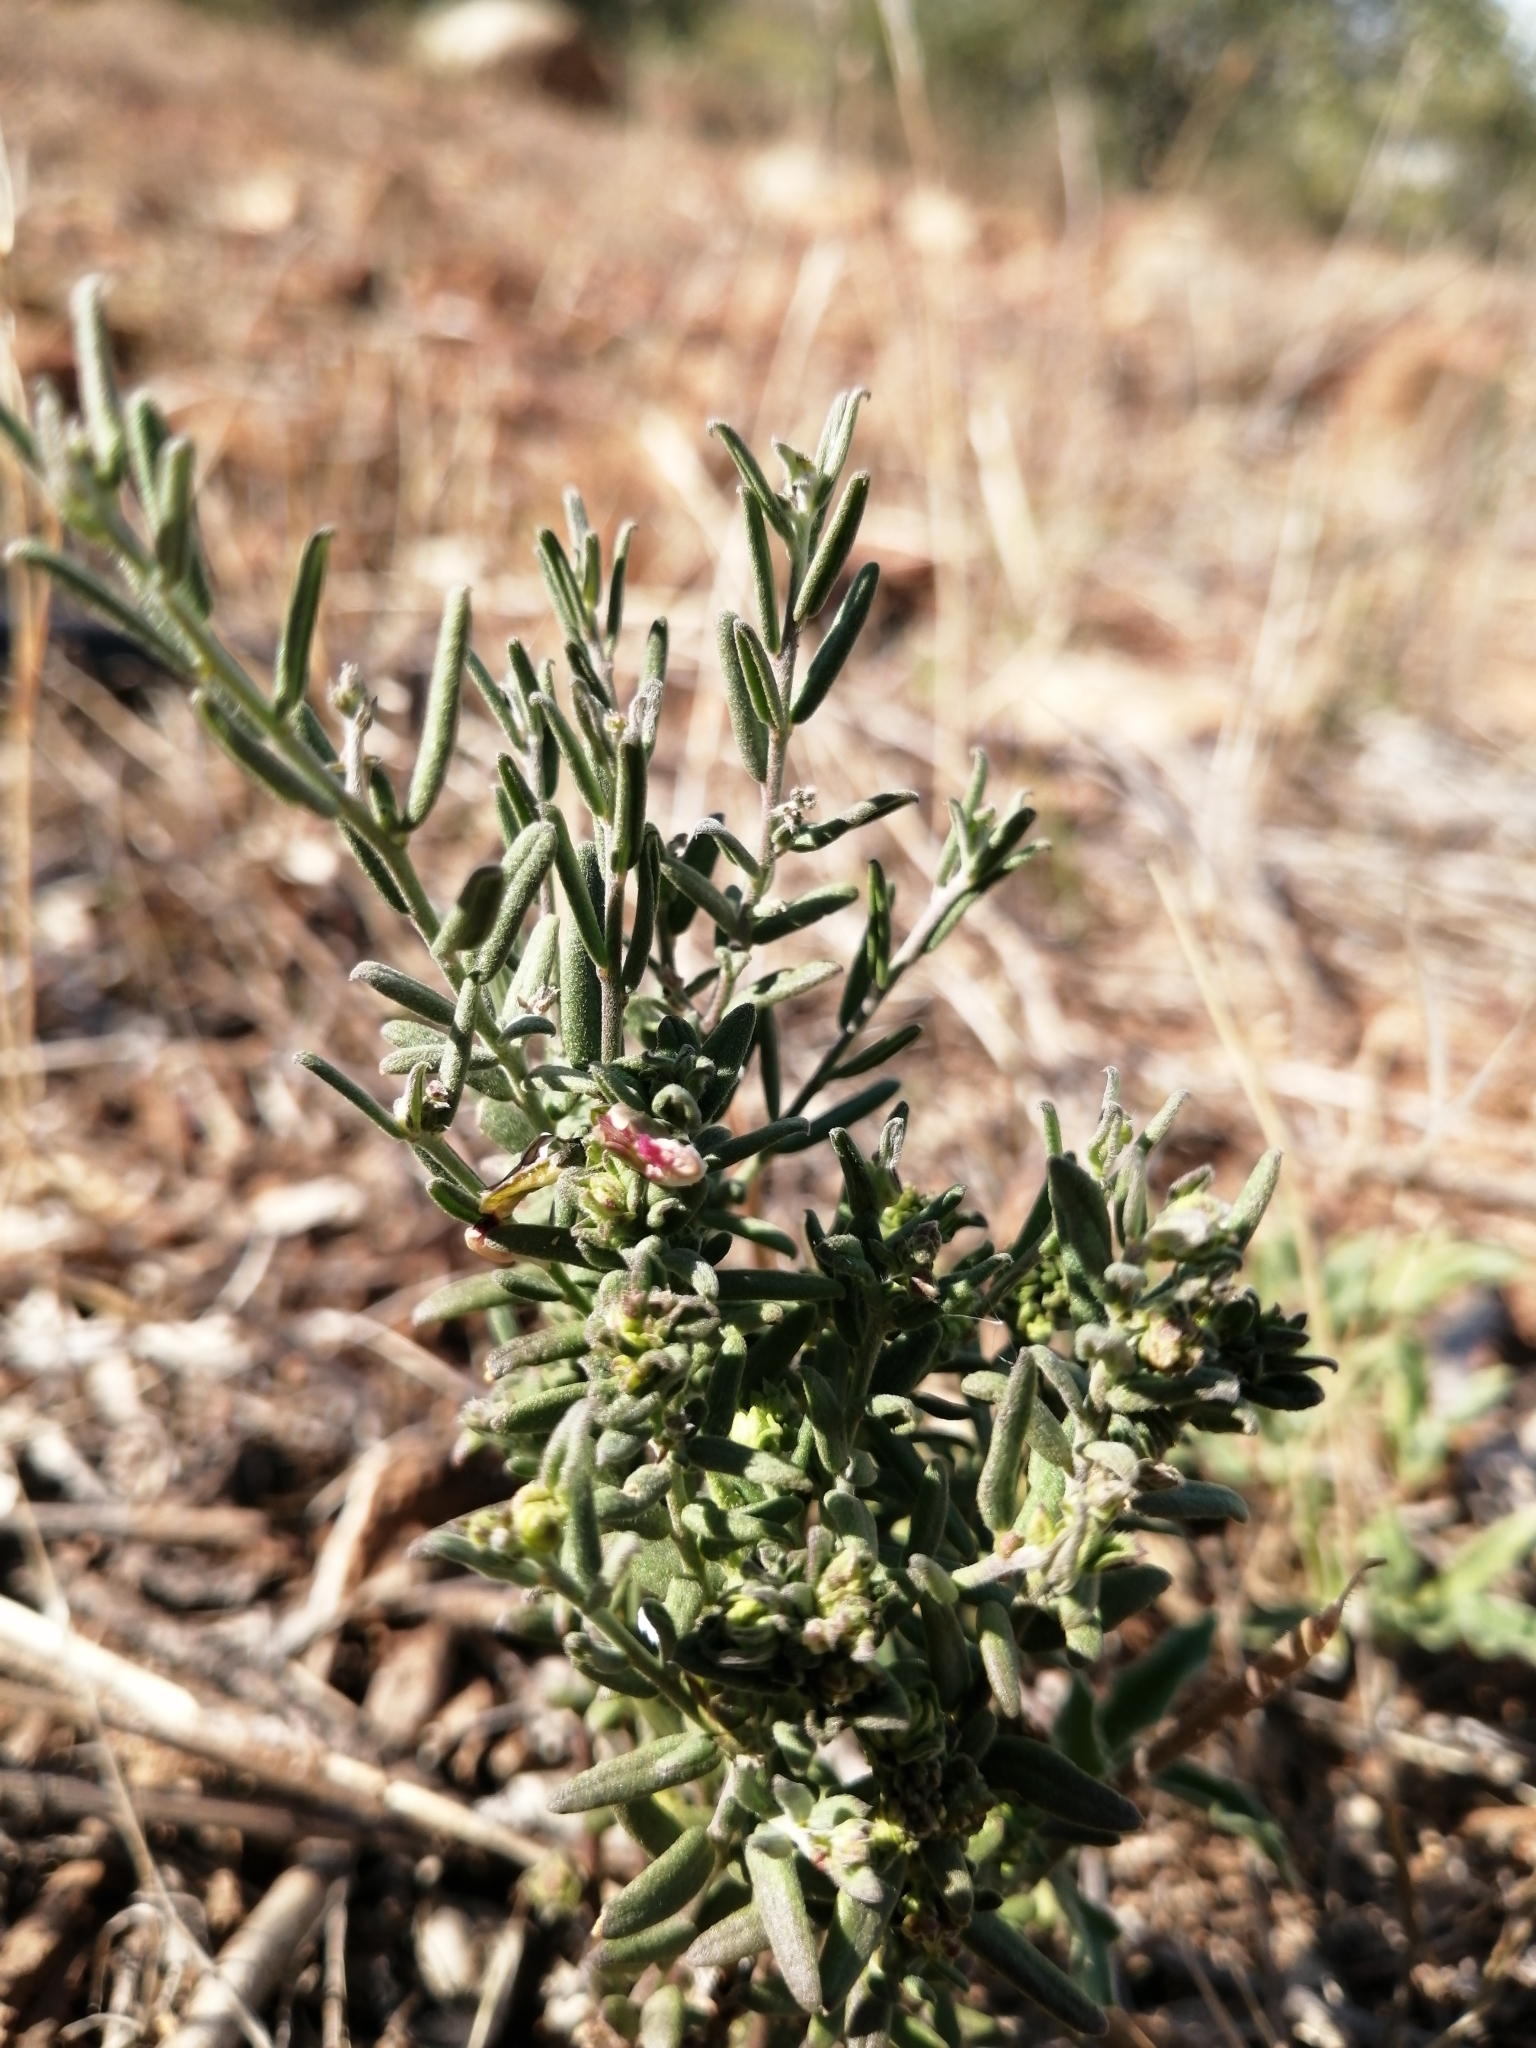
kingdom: Plantae
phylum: Tracheophyta
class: Magnoliopsida
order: Fabales
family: Polygalaceae
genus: Polygala
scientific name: Polygala scabra
